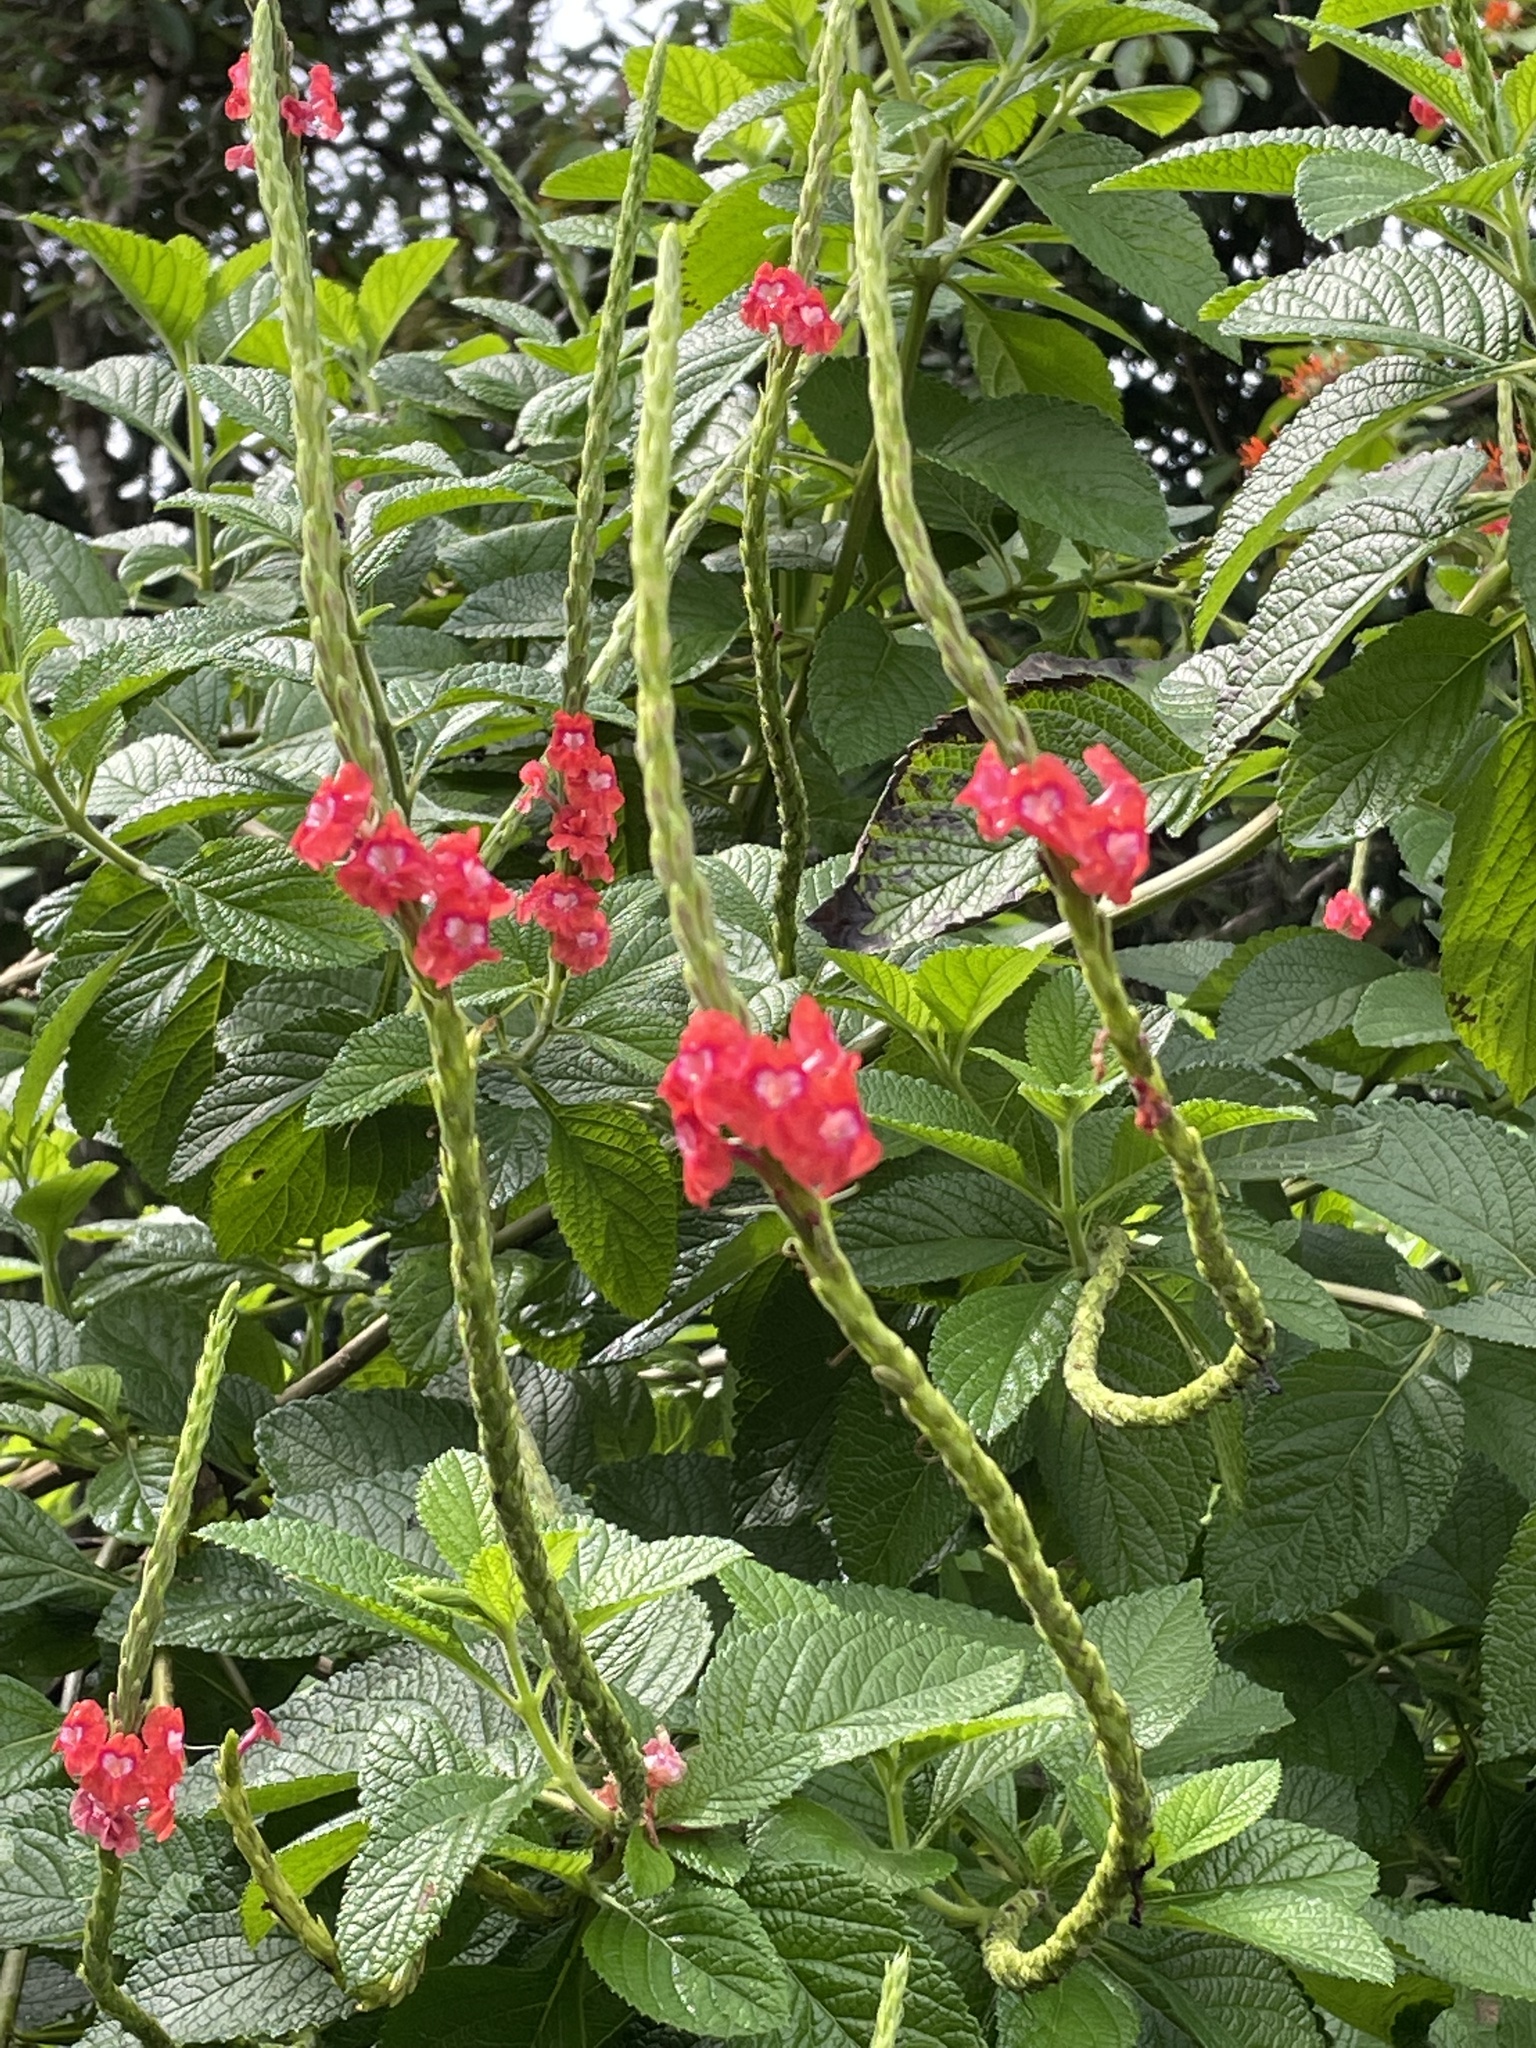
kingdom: Plantae
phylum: Tracheophyta
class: Magnoliopsida
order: Lamiales
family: Verbenaceae
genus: Stachytarpheta
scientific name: Stachytarpheta mutabilis
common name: Changeable velvetberry
